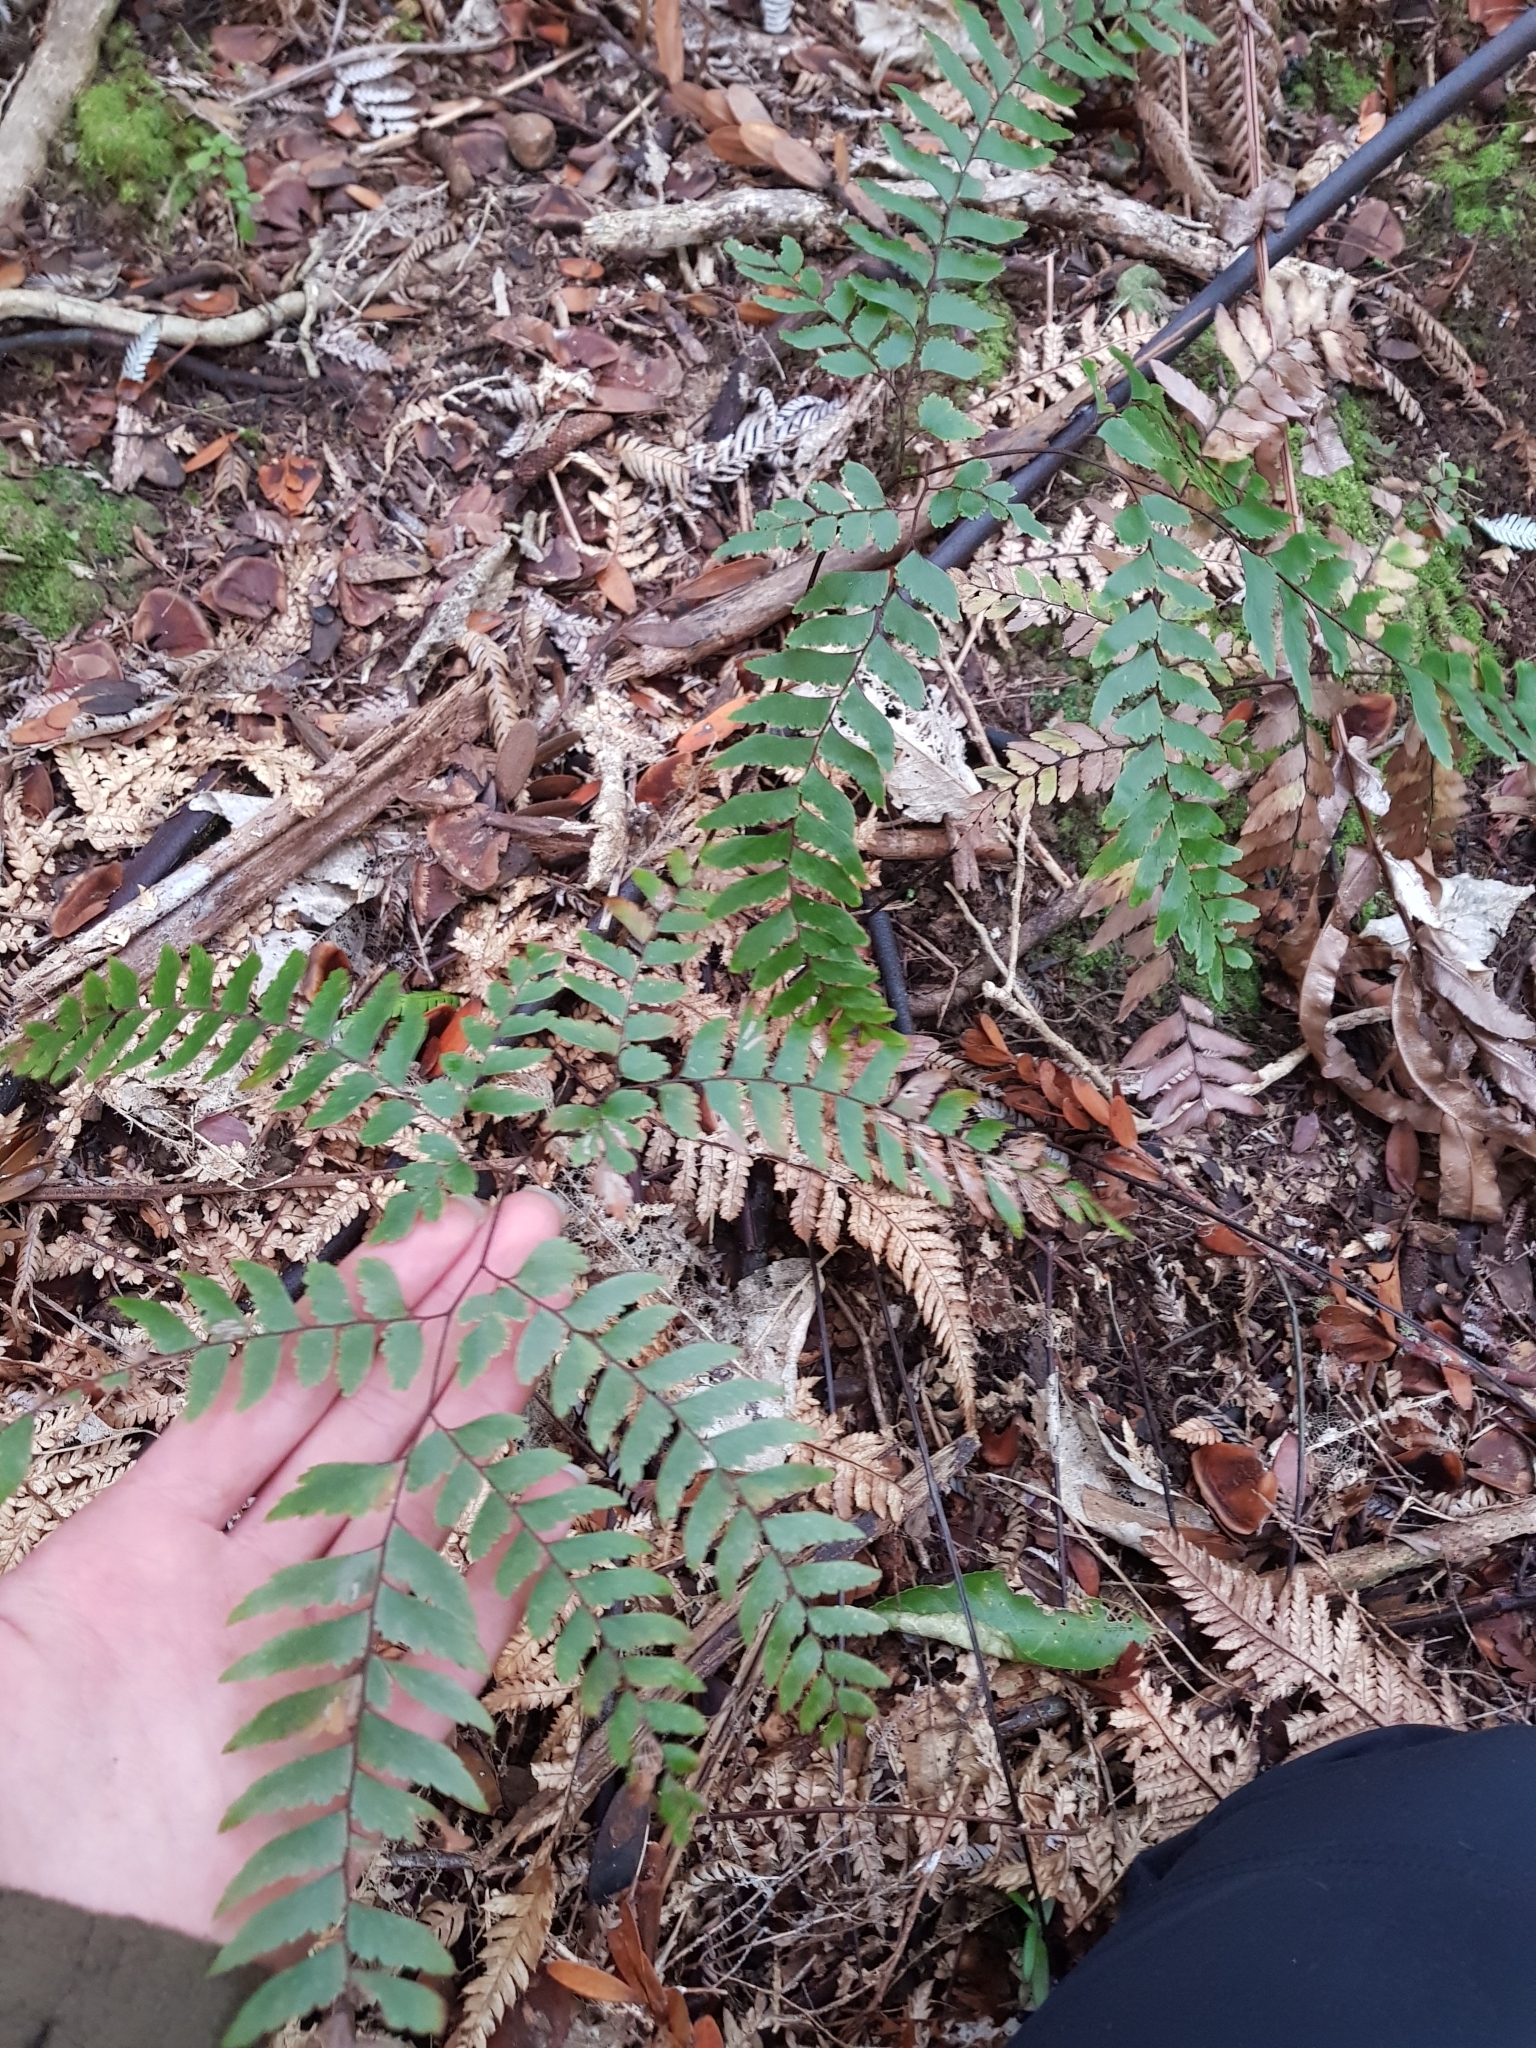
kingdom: Plantae
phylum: Tracheophyta
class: Polypodiopsida
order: Polypodiales
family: Pteridaceae
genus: Adiantum
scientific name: Adiantum fulvum
